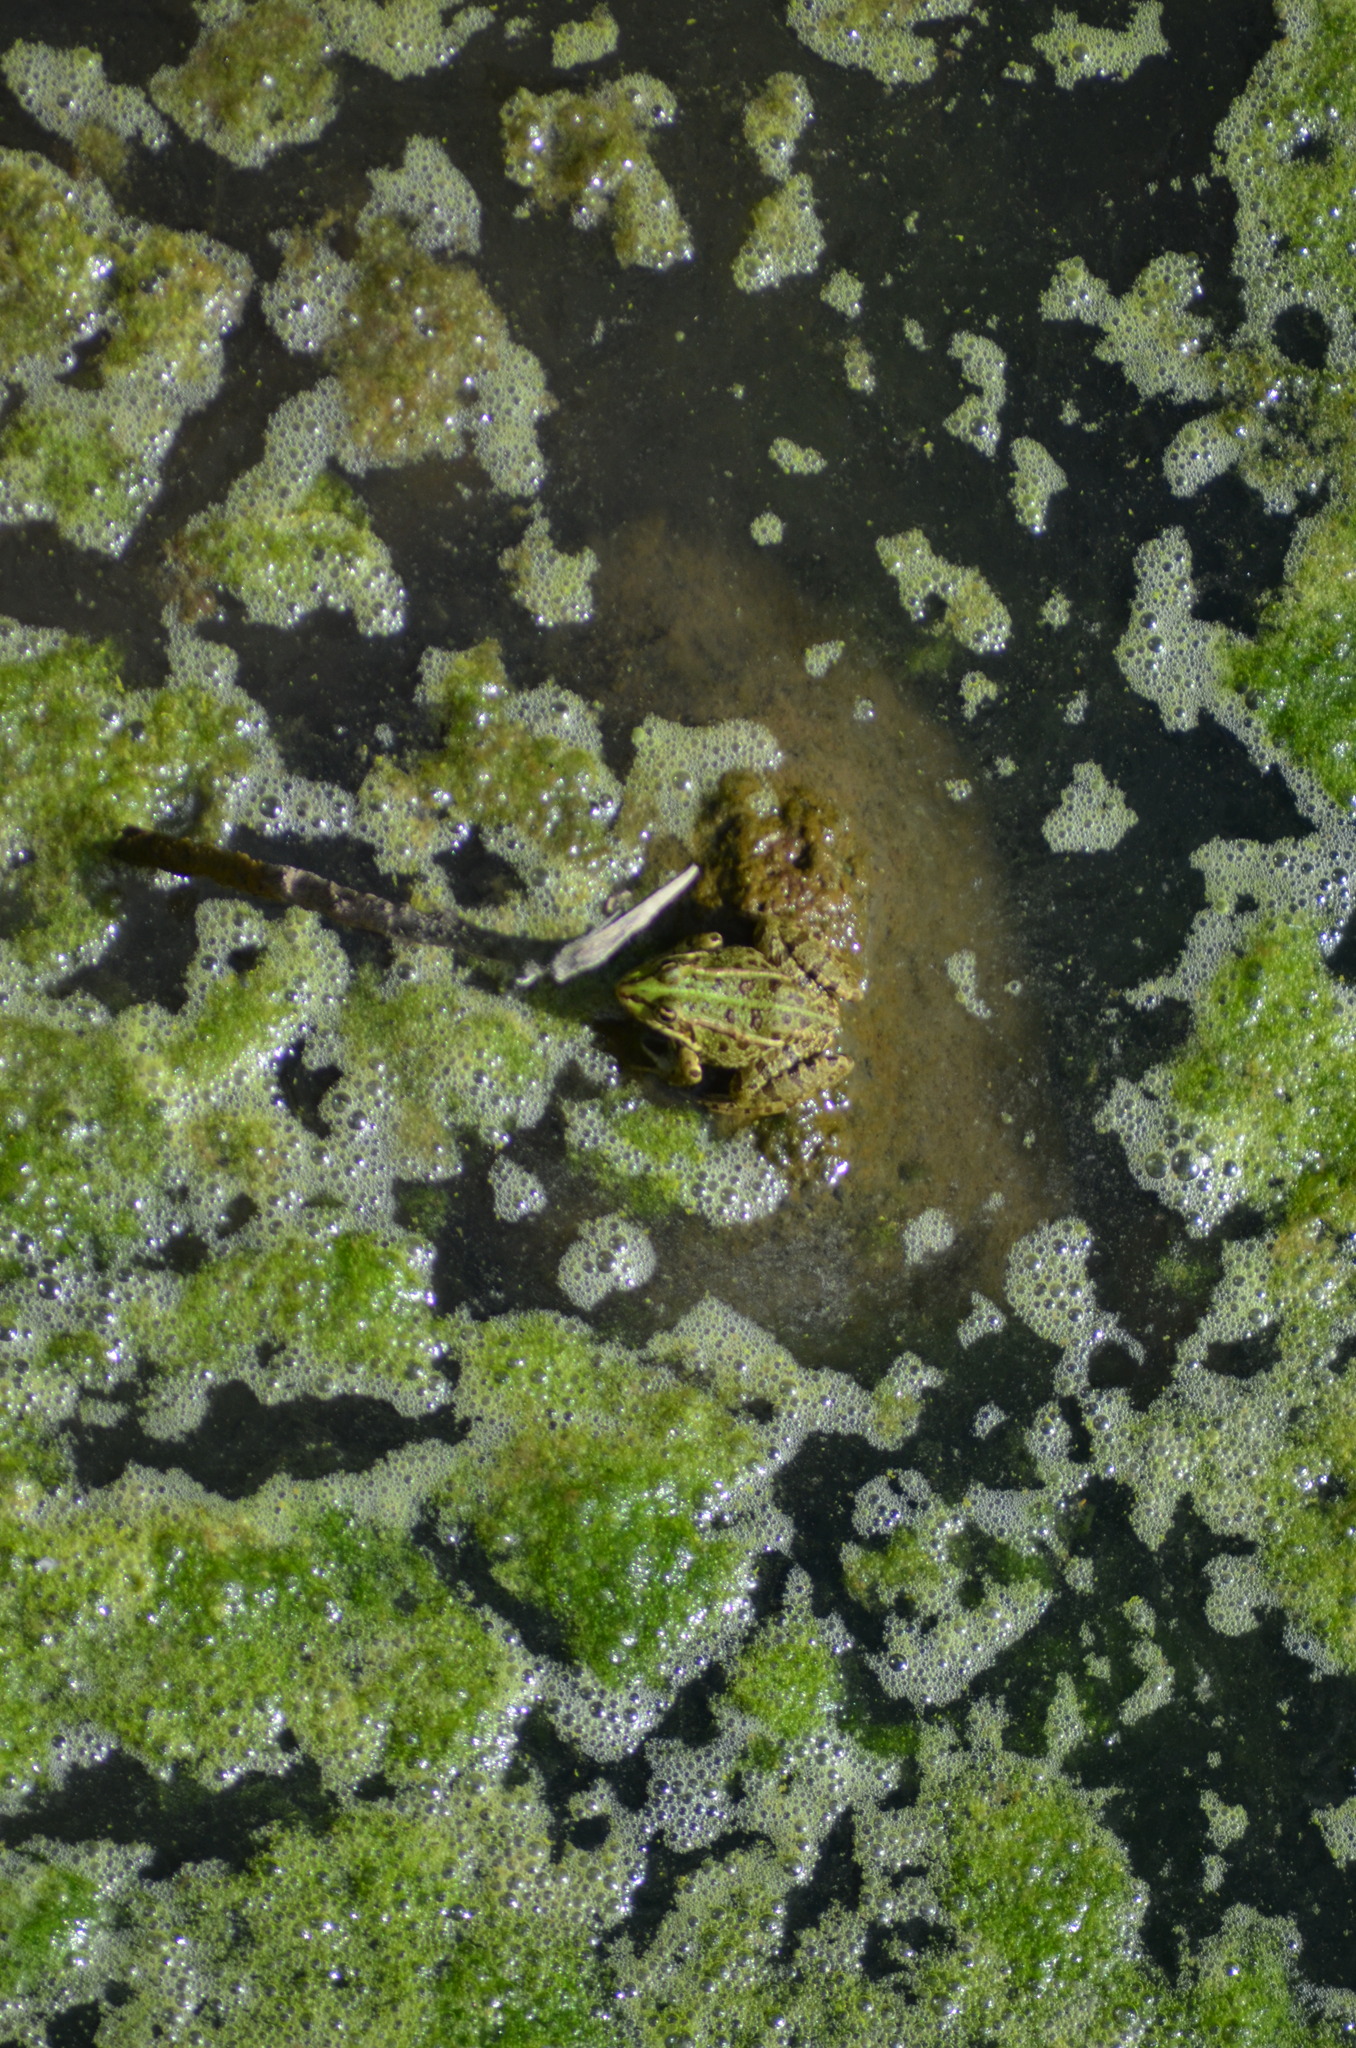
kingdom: Animalia
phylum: Chordata
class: Amphibia
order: Anura
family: Ranidae
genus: Pelophylax
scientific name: Pelophylax perezi
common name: Perez's frog
